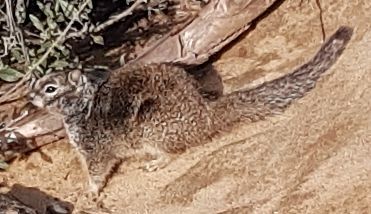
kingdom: Animalia
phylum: Chordata
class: Mammalia
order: Rodentia
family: Sciuridae
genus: Otospermophilus
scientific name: Otospermophilus beecheyi
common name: California ground squirrel
